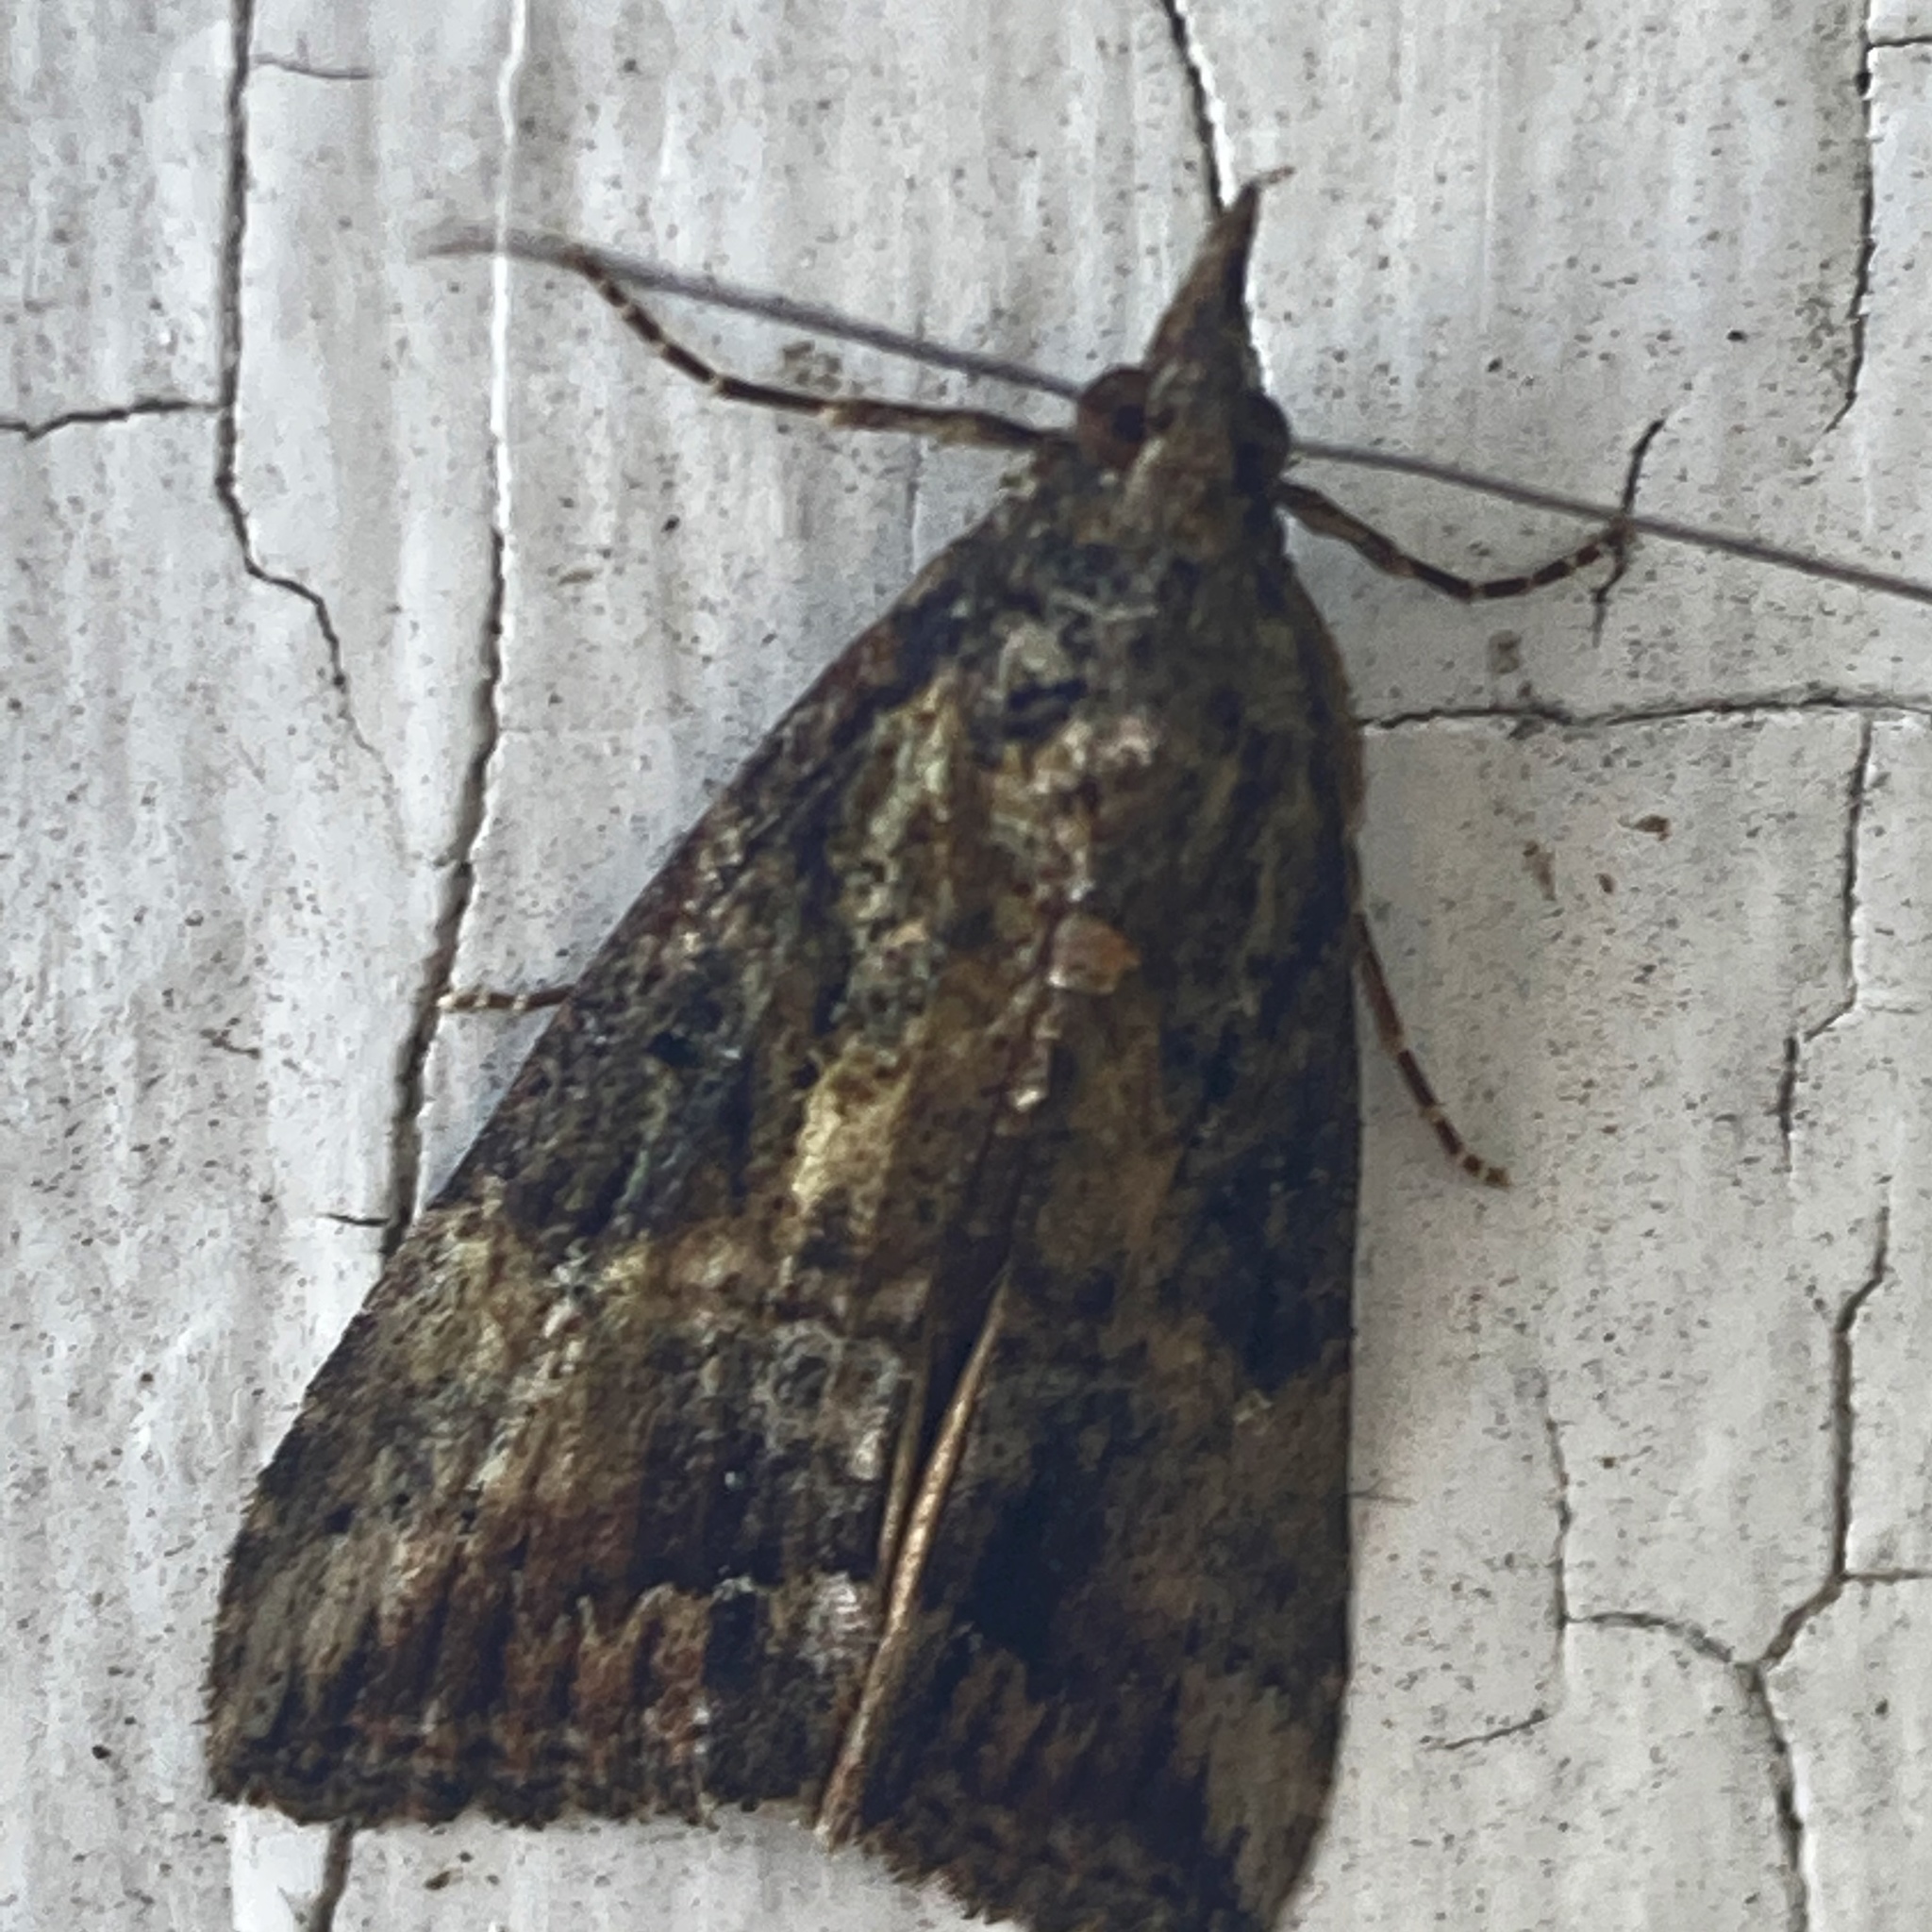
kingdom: Animalia
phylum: Arthropoda
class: Insecta
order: Lepidoptera
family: Erebidae
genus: Hypena
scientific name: Hypena scabra
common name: Green cloverworm
